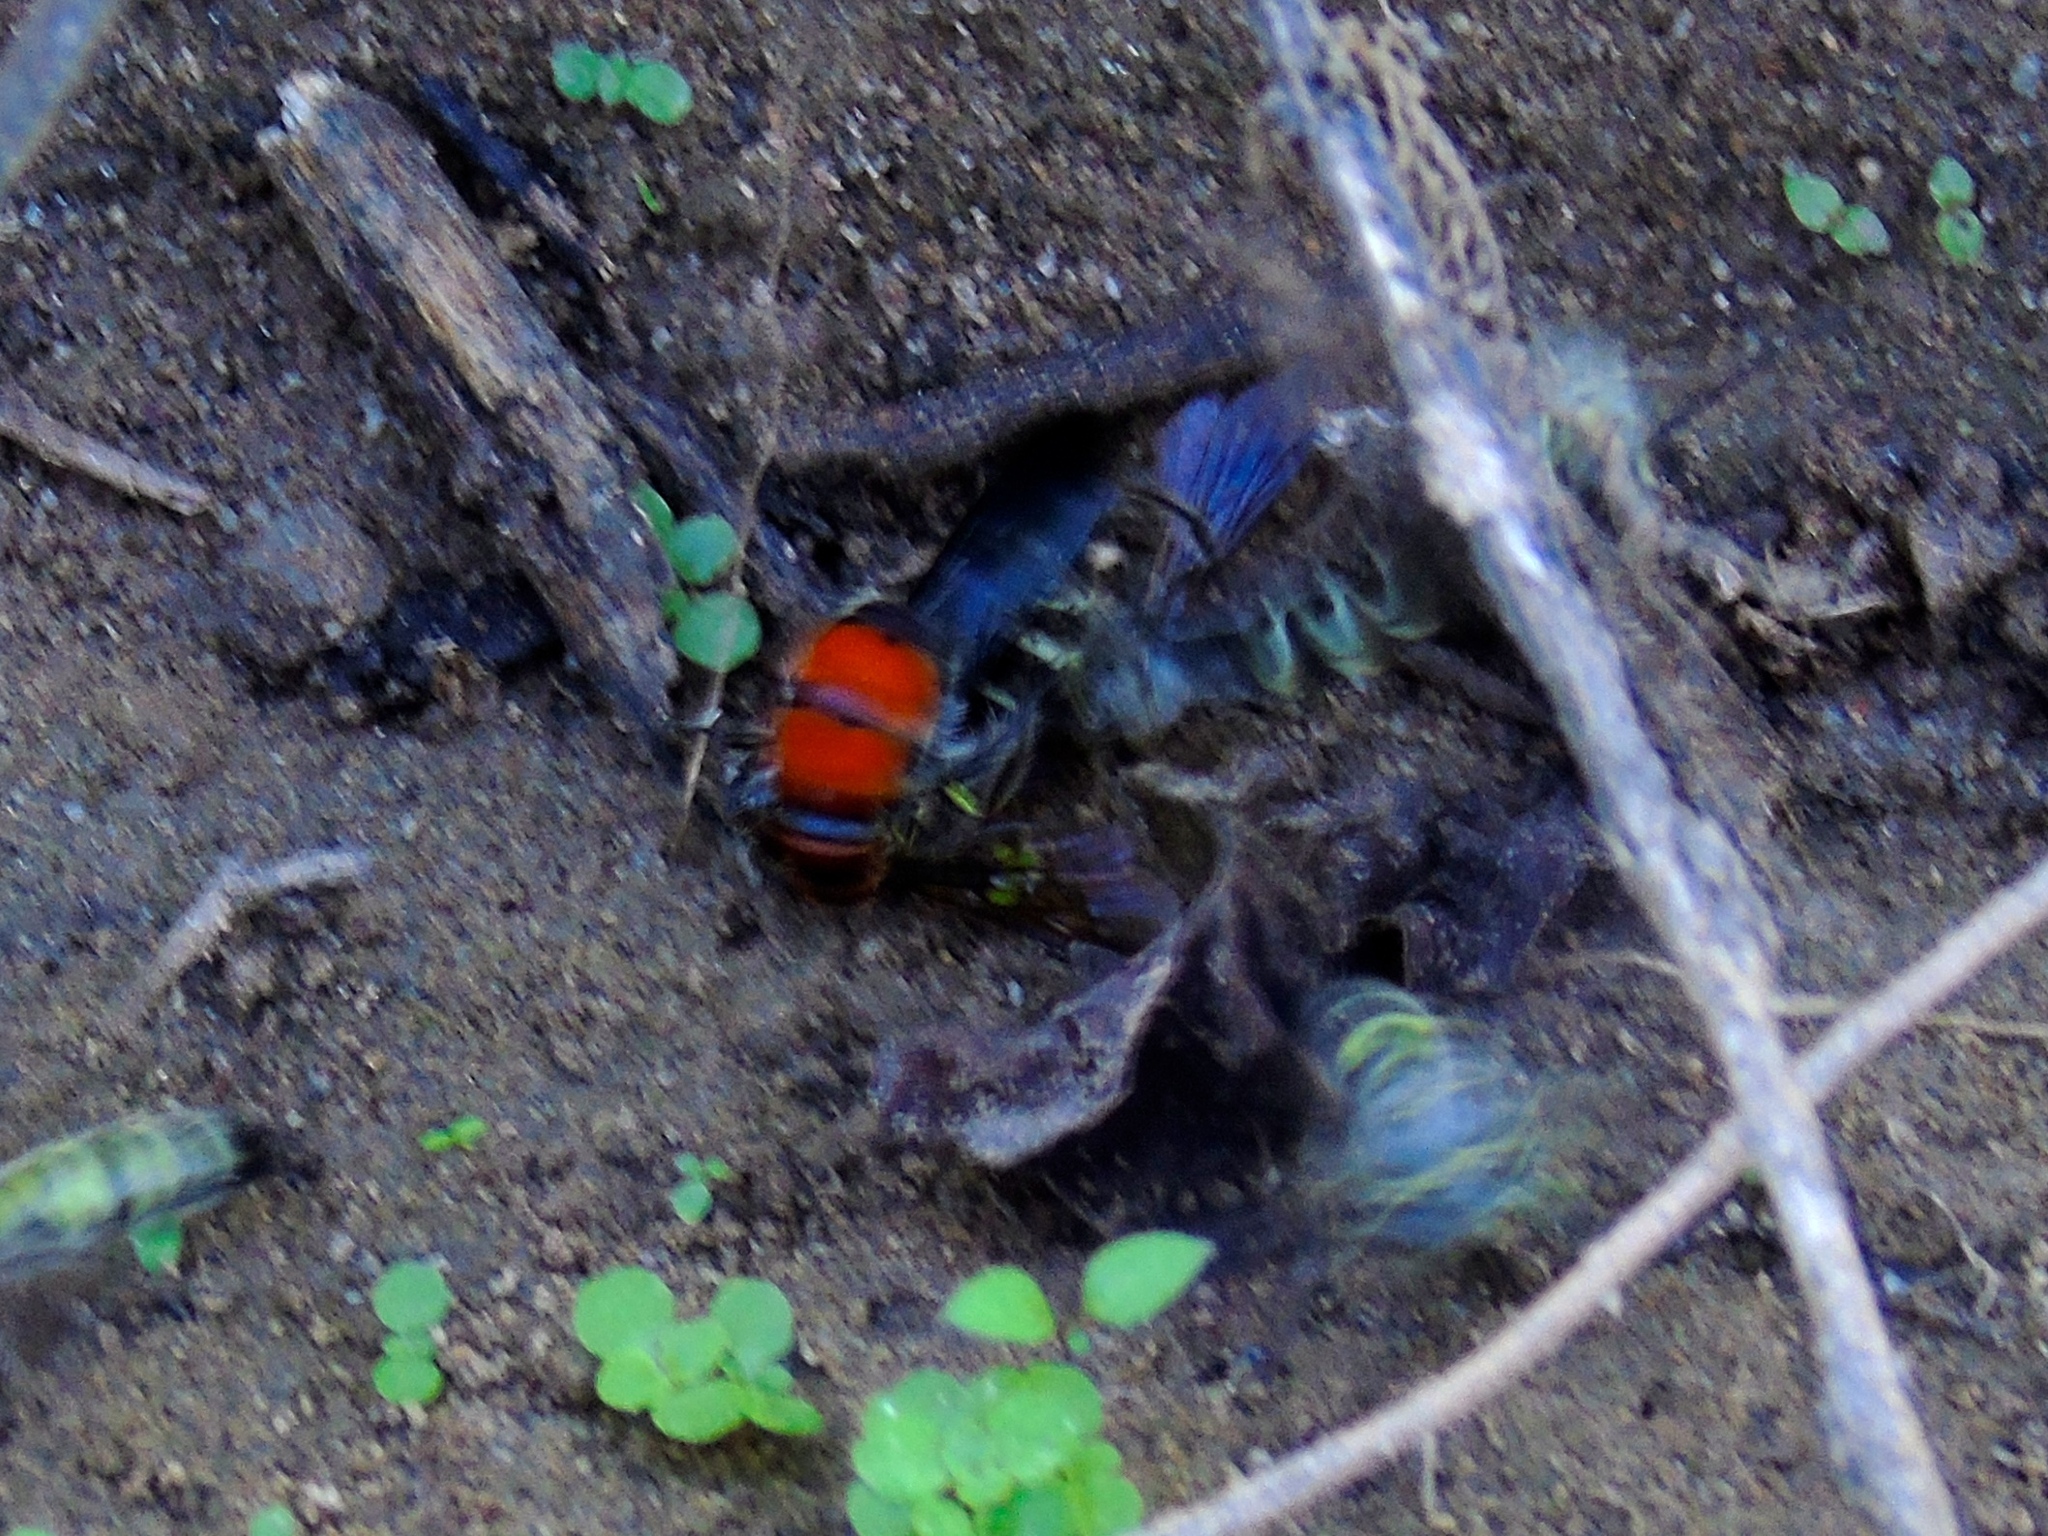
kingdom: Animalia
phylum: Arthropoda
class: Insecta
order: Hymenoptera
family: Scoliidae
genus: Dielis
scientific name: Dielis tolteca
